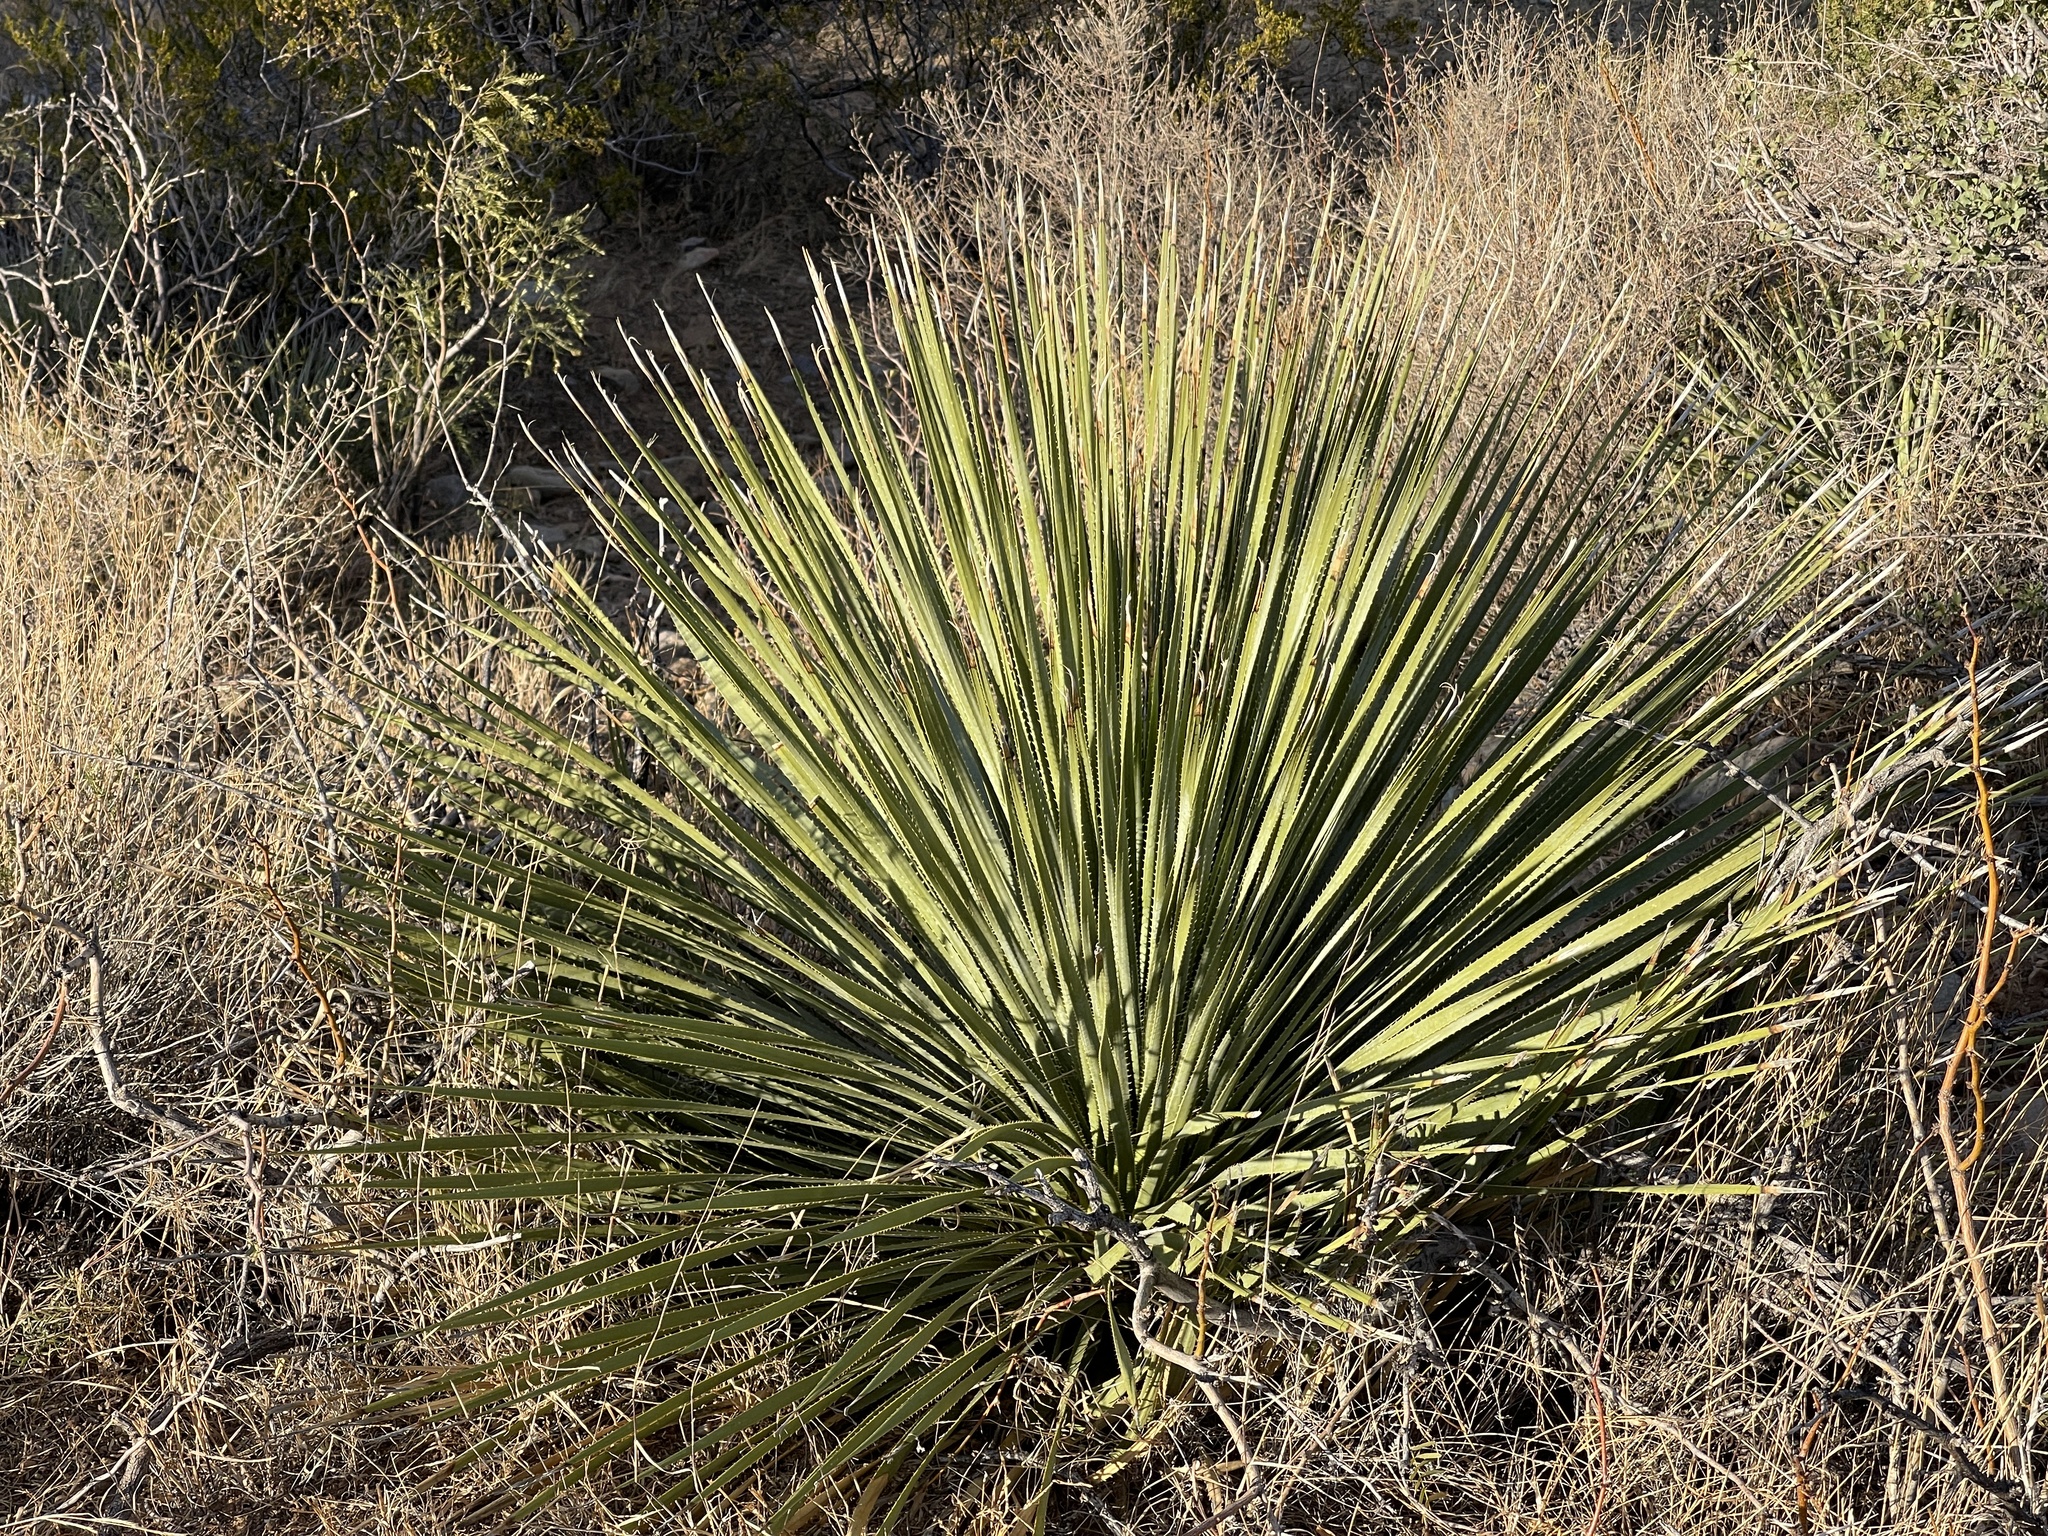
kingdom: Plantae
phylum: Tracheophyta
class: Liliopsida
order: Asparagales
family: Asparagaceae
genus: Dasylirion
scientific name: Dasylirion wheeleri
